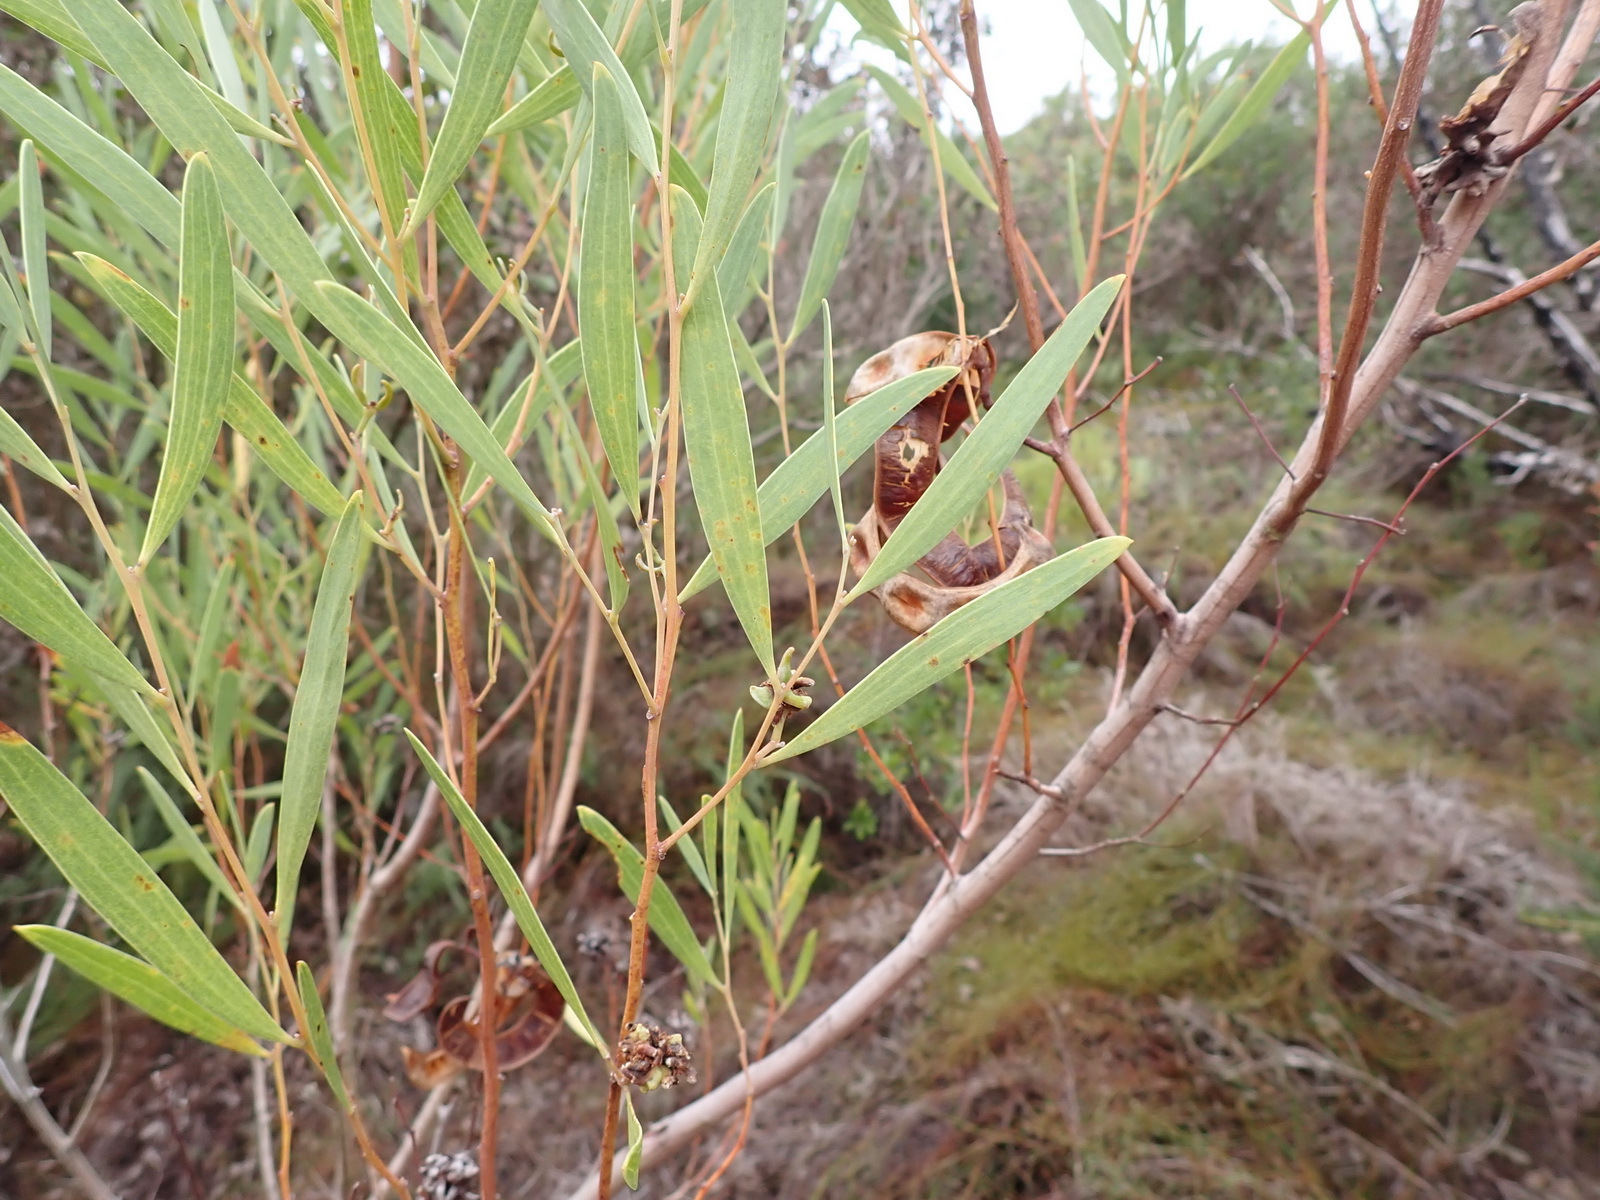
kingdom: Plantae
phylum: Tracheophyta
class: Magnoliopsida
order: Fabales
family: Fabaceae
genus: Acacia
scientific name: Acacia cyclops
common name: Coastal wattle
